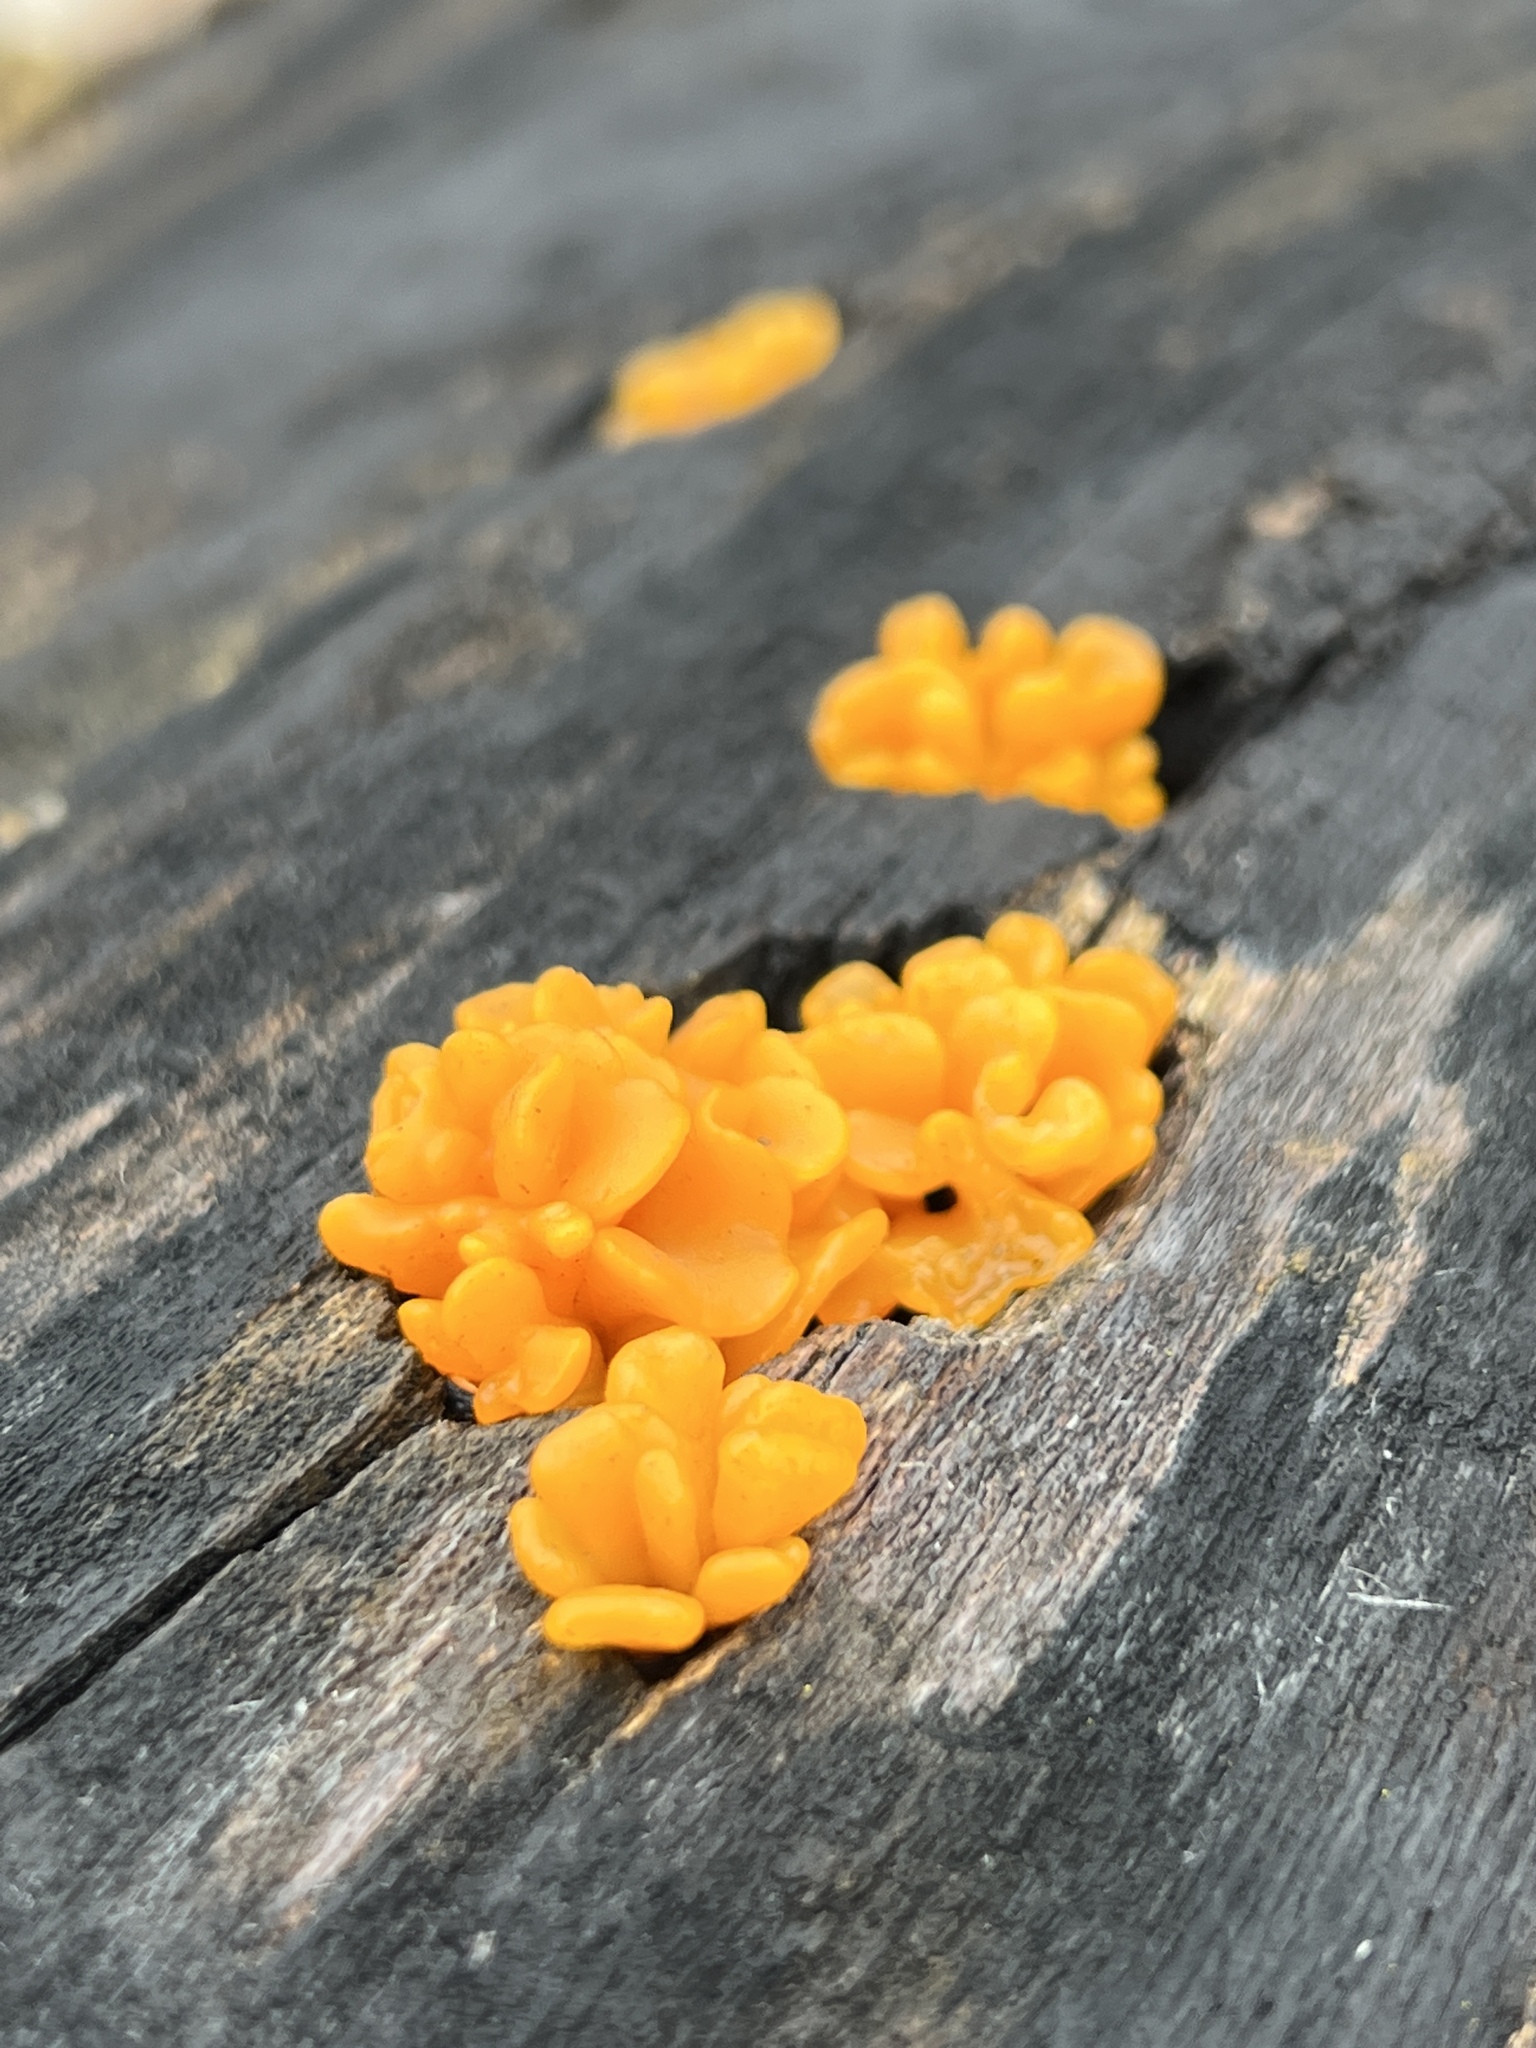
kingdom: Fungi
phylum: Basidiomycota
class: Dacrymycetes
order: Dacrymycetales
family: Dacrymycetaceae
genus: Dacrymyces
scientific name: Dacrymyces spathularius
